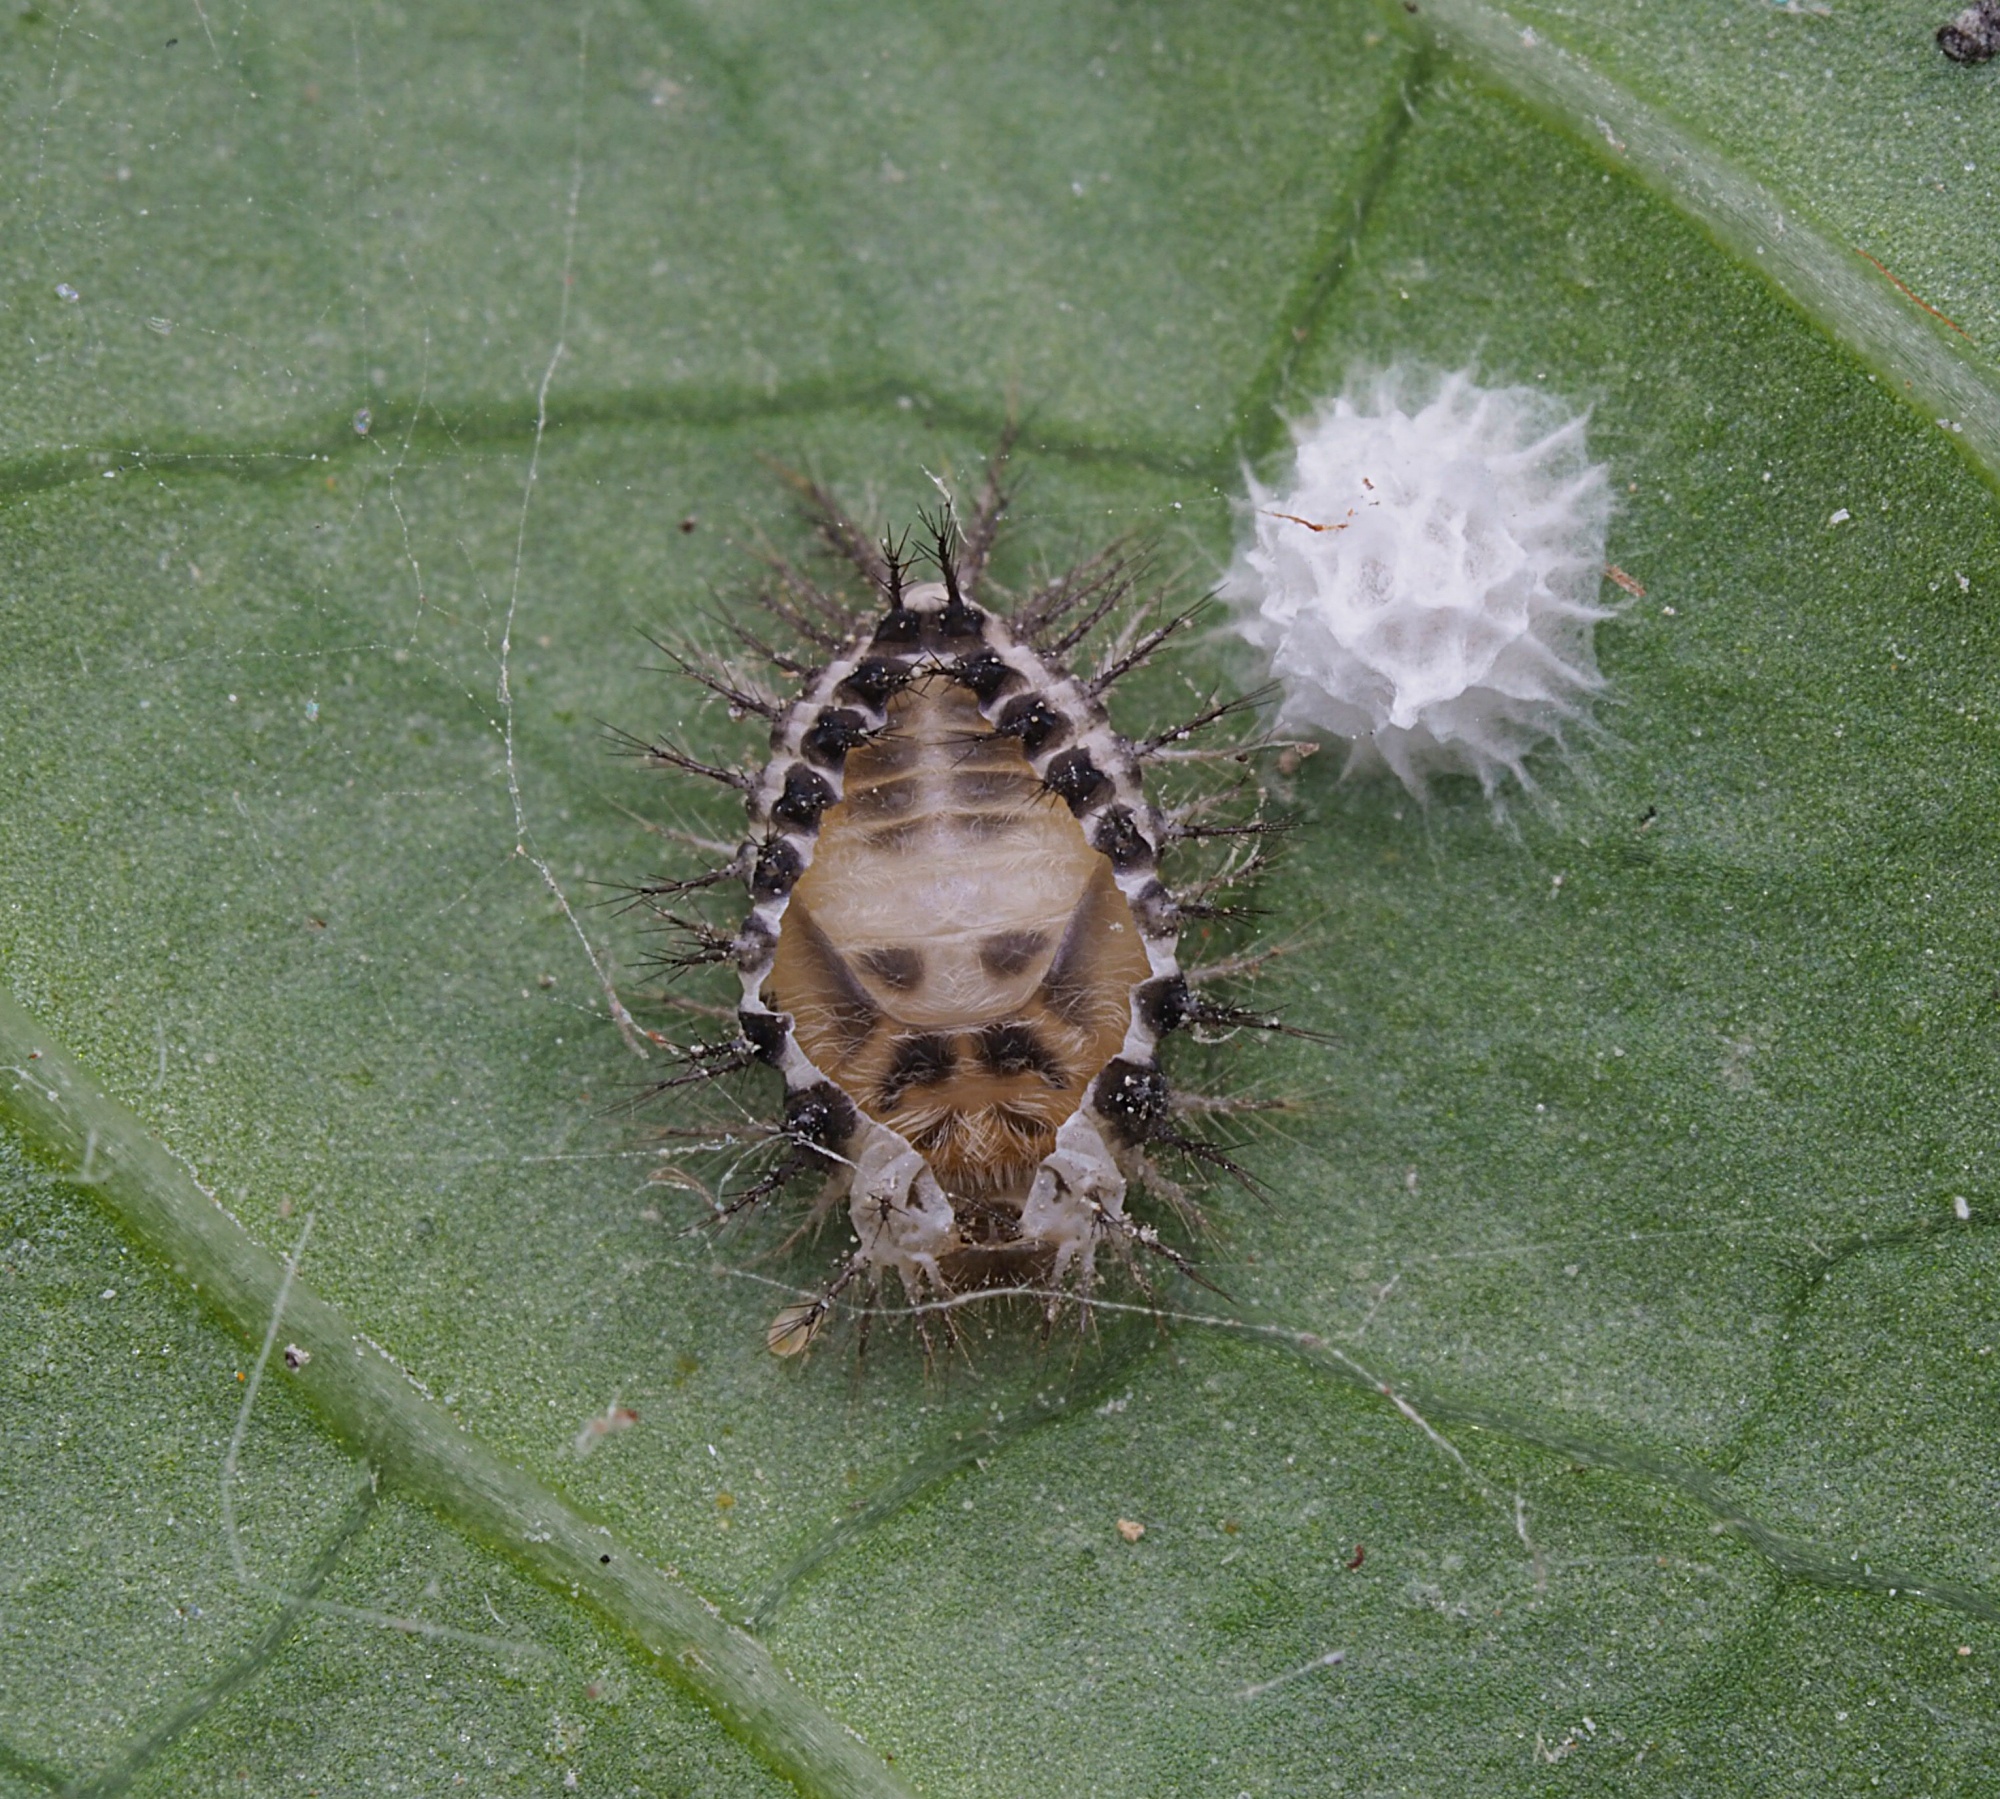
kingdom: Animalia
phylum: Arthropoda
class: Insecta
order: Coleoptera
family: Coccinellidae
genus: Halmus
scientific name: Halmus chalybeus
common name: Steel blue ladybird beetle
